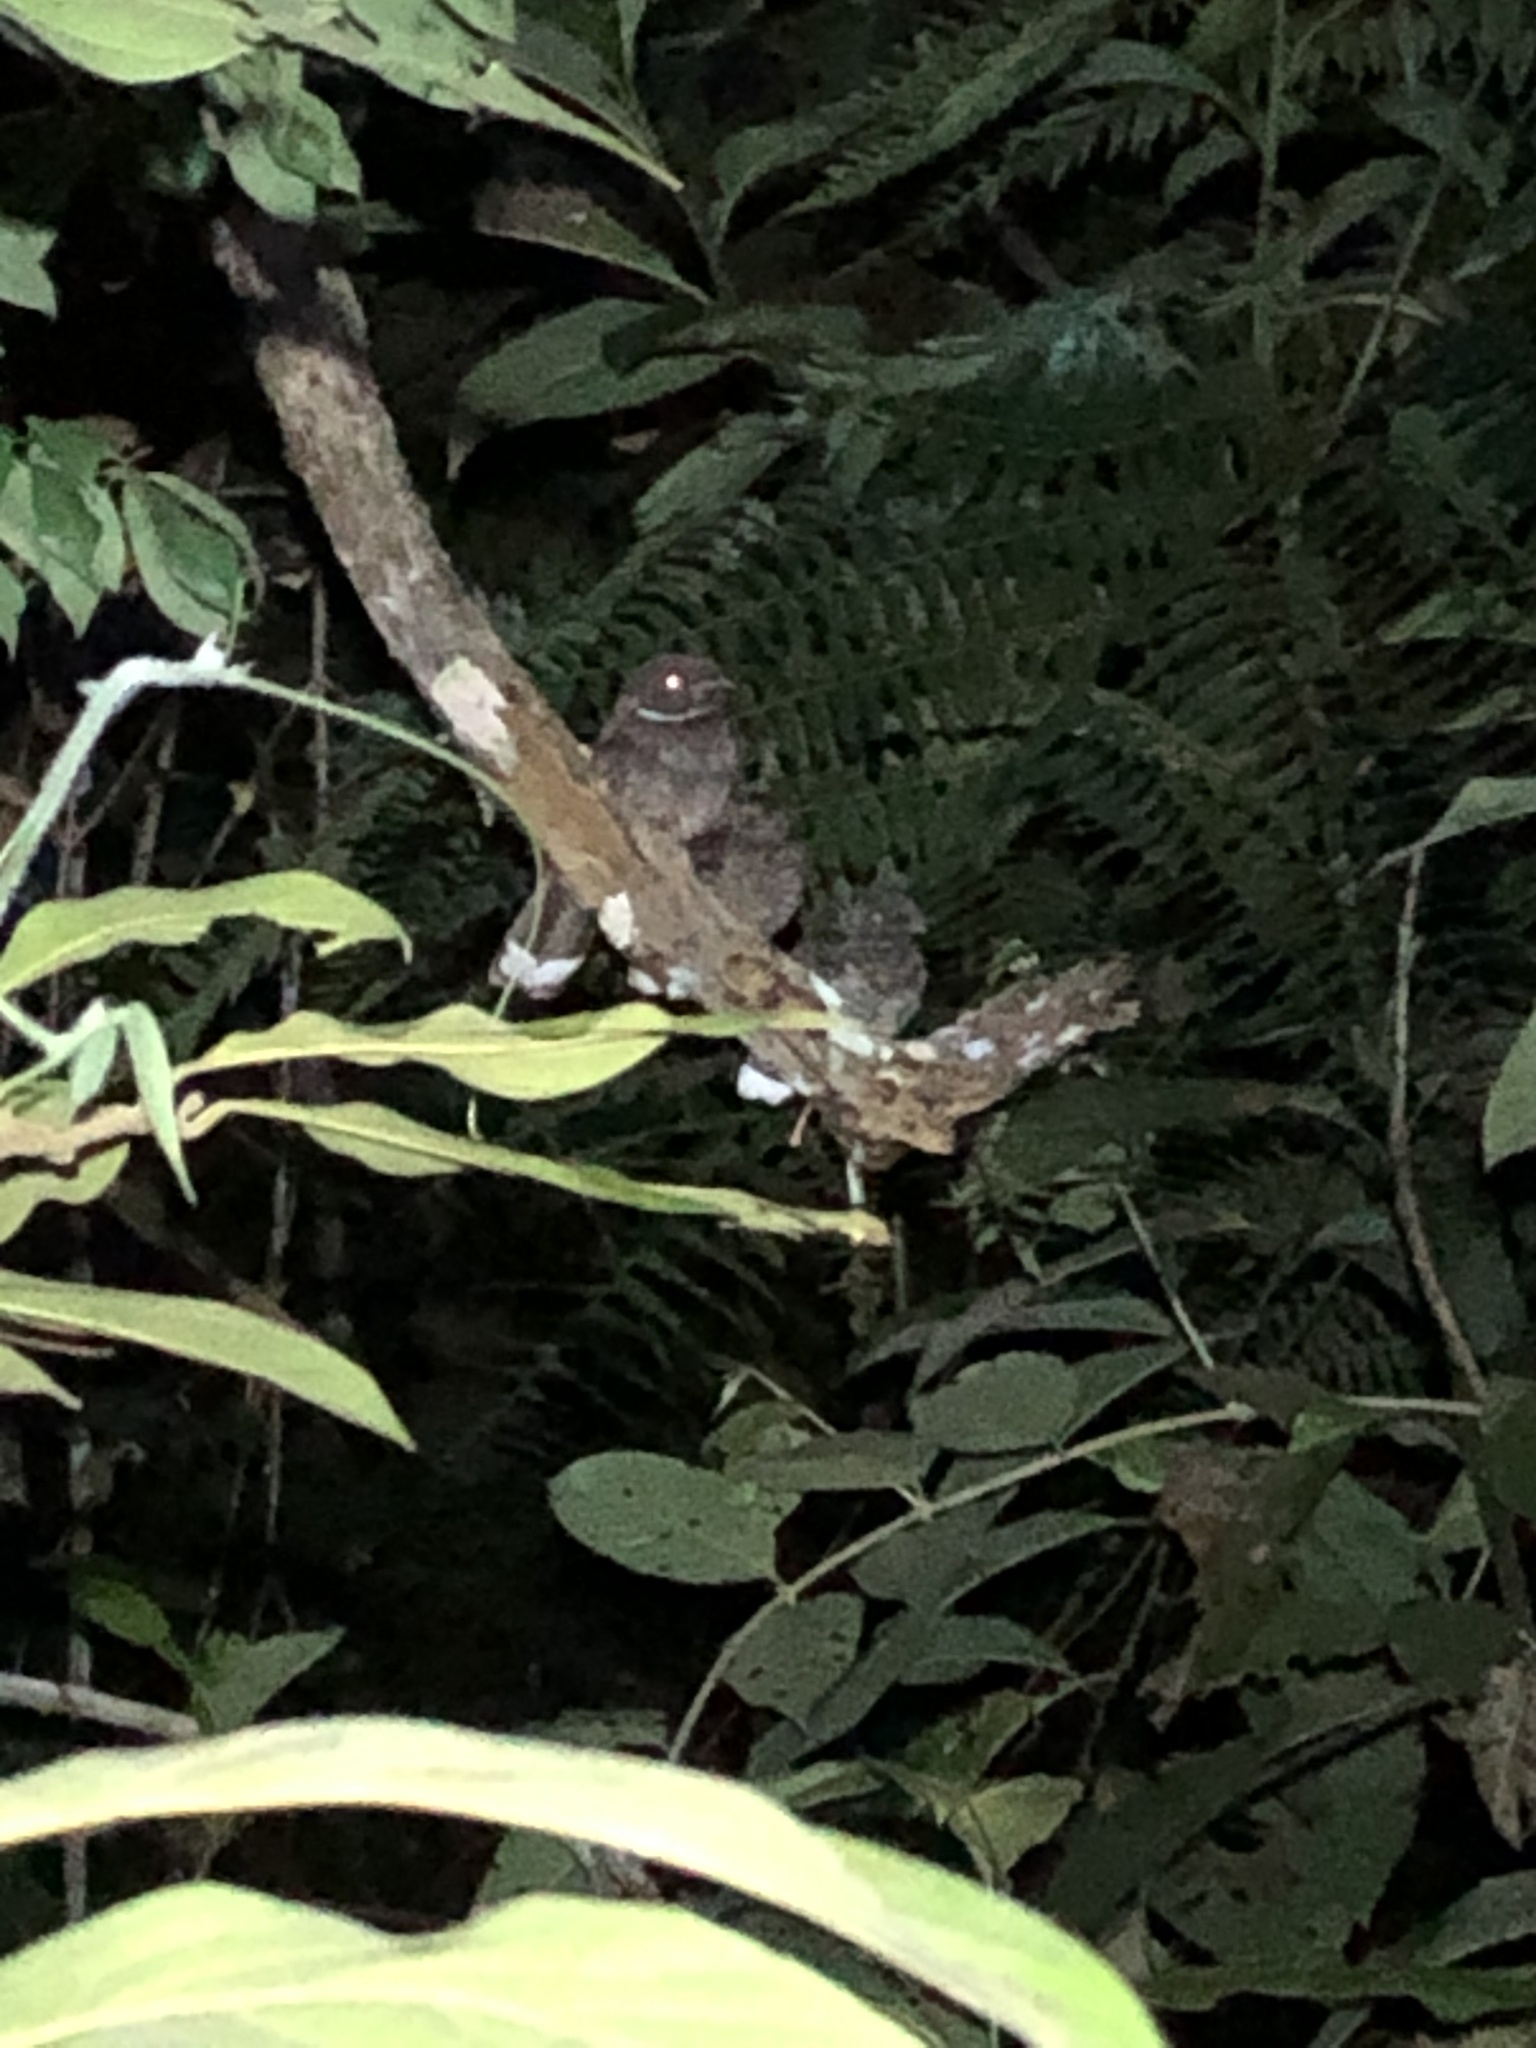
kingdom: Animalia
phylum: Chordata
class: Aves
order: Caprimulgiformes
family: Caprimulgidae
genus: Nyctiphrynus
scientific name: Nyctiphrynus ocellatus
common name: Ocellated poorwill
